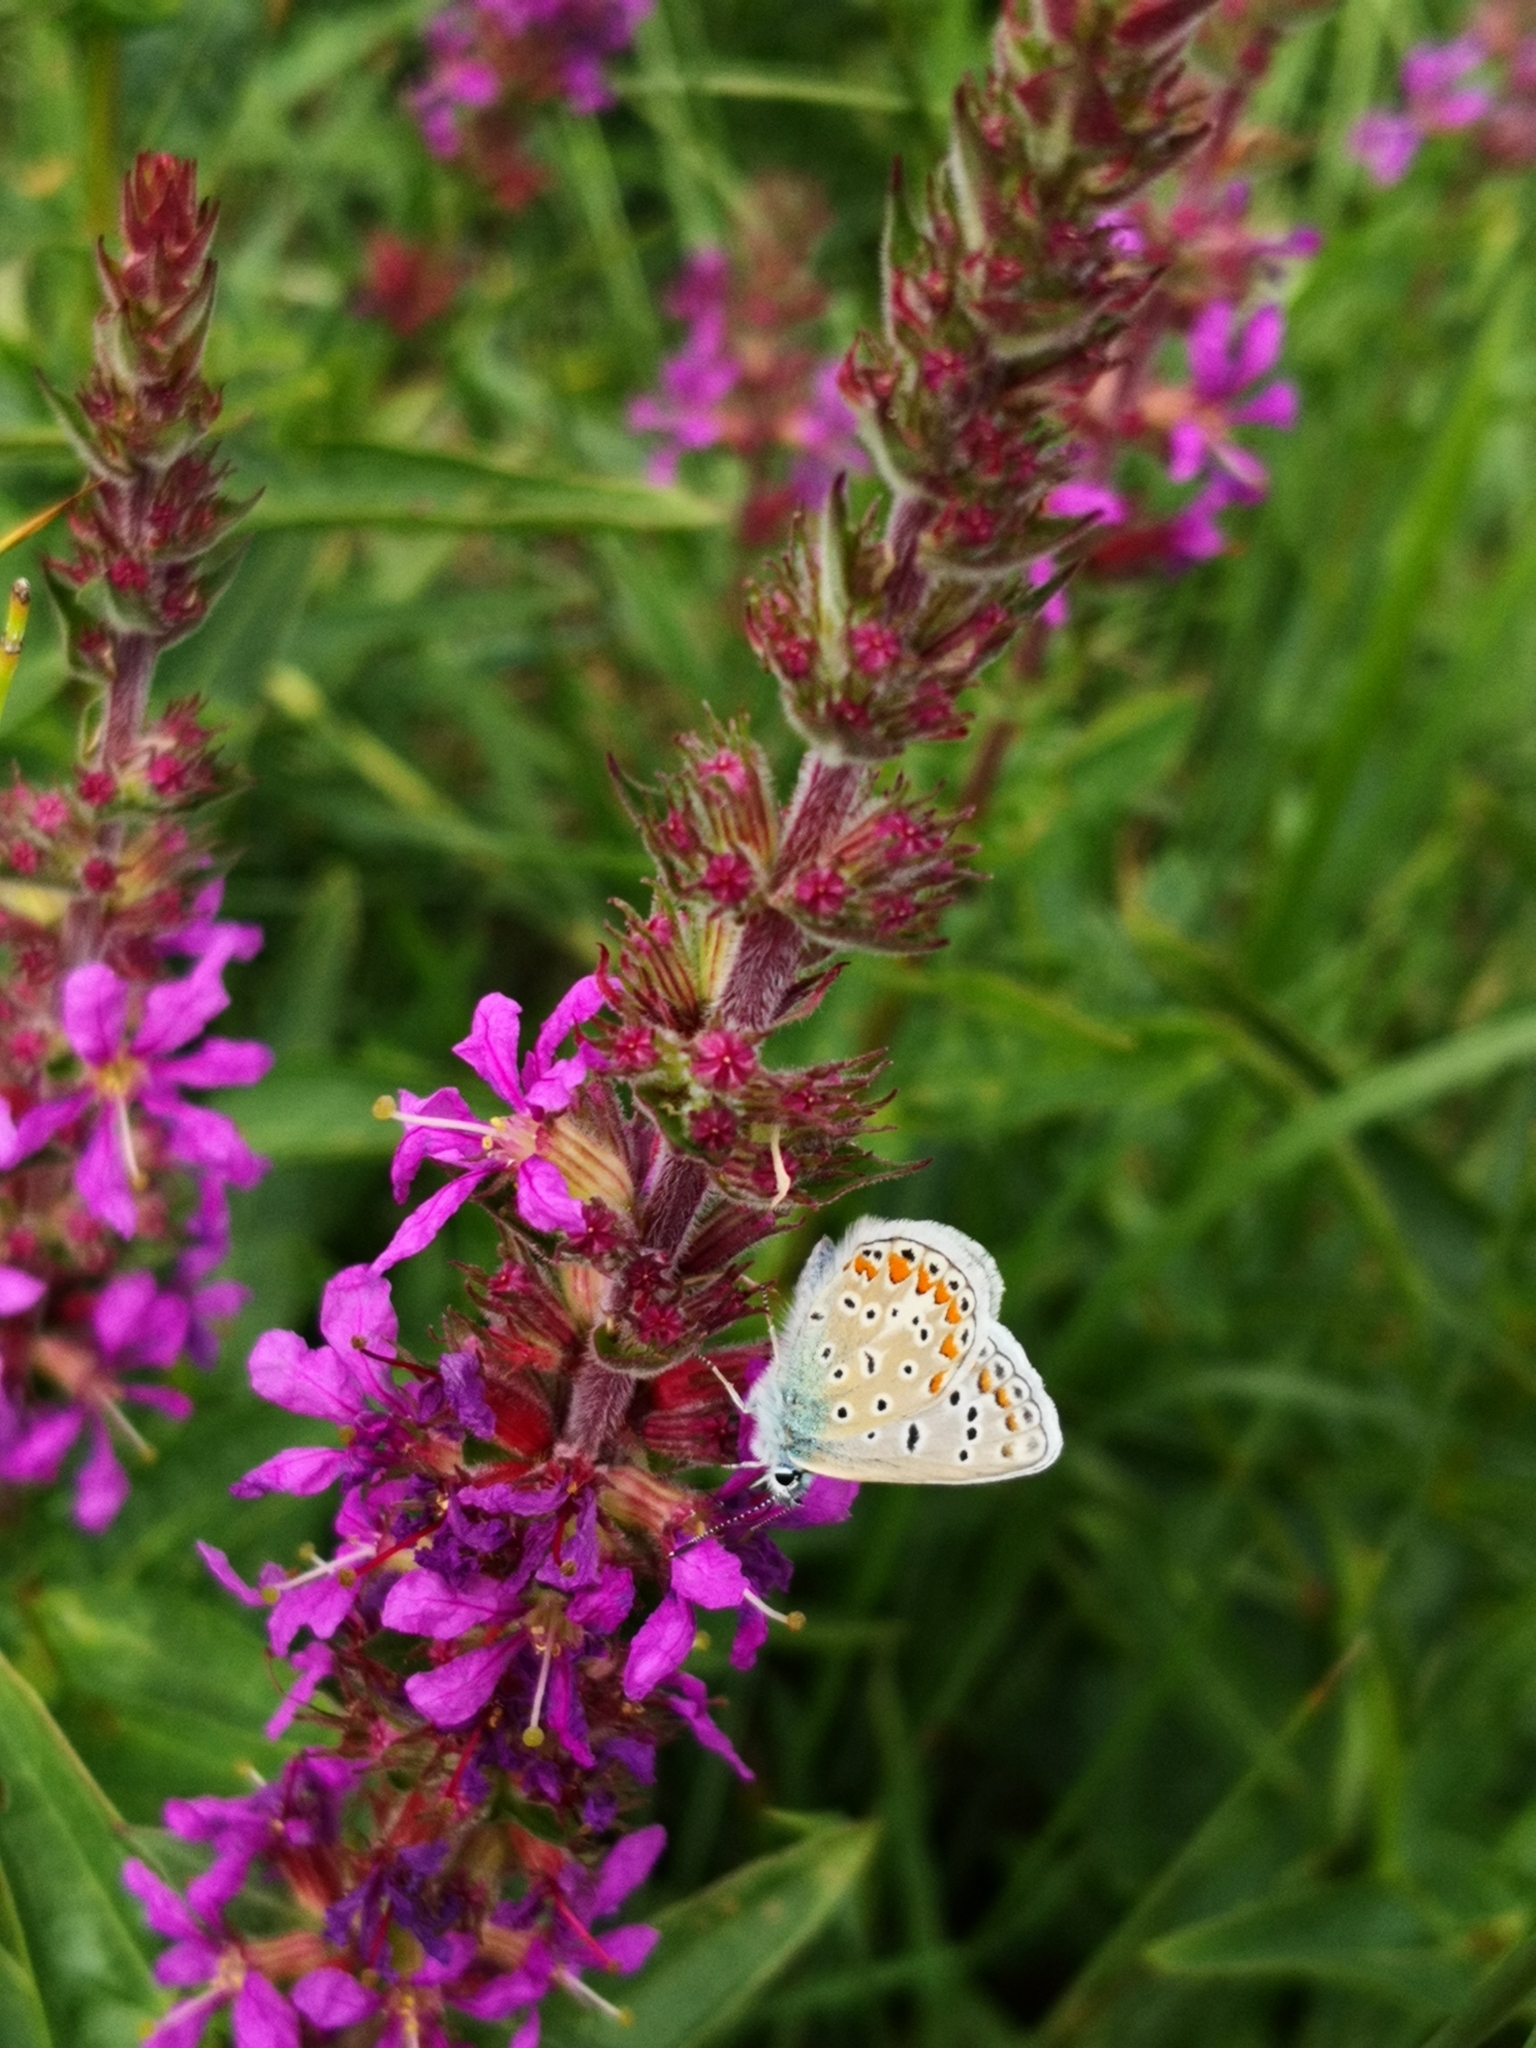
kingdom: Animalia
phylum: Arthropoda
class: Insecta
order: Lepidoptera
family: Lycaenidae
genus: Polyommatus
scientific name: Polyommatus icarus
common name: Common blue
